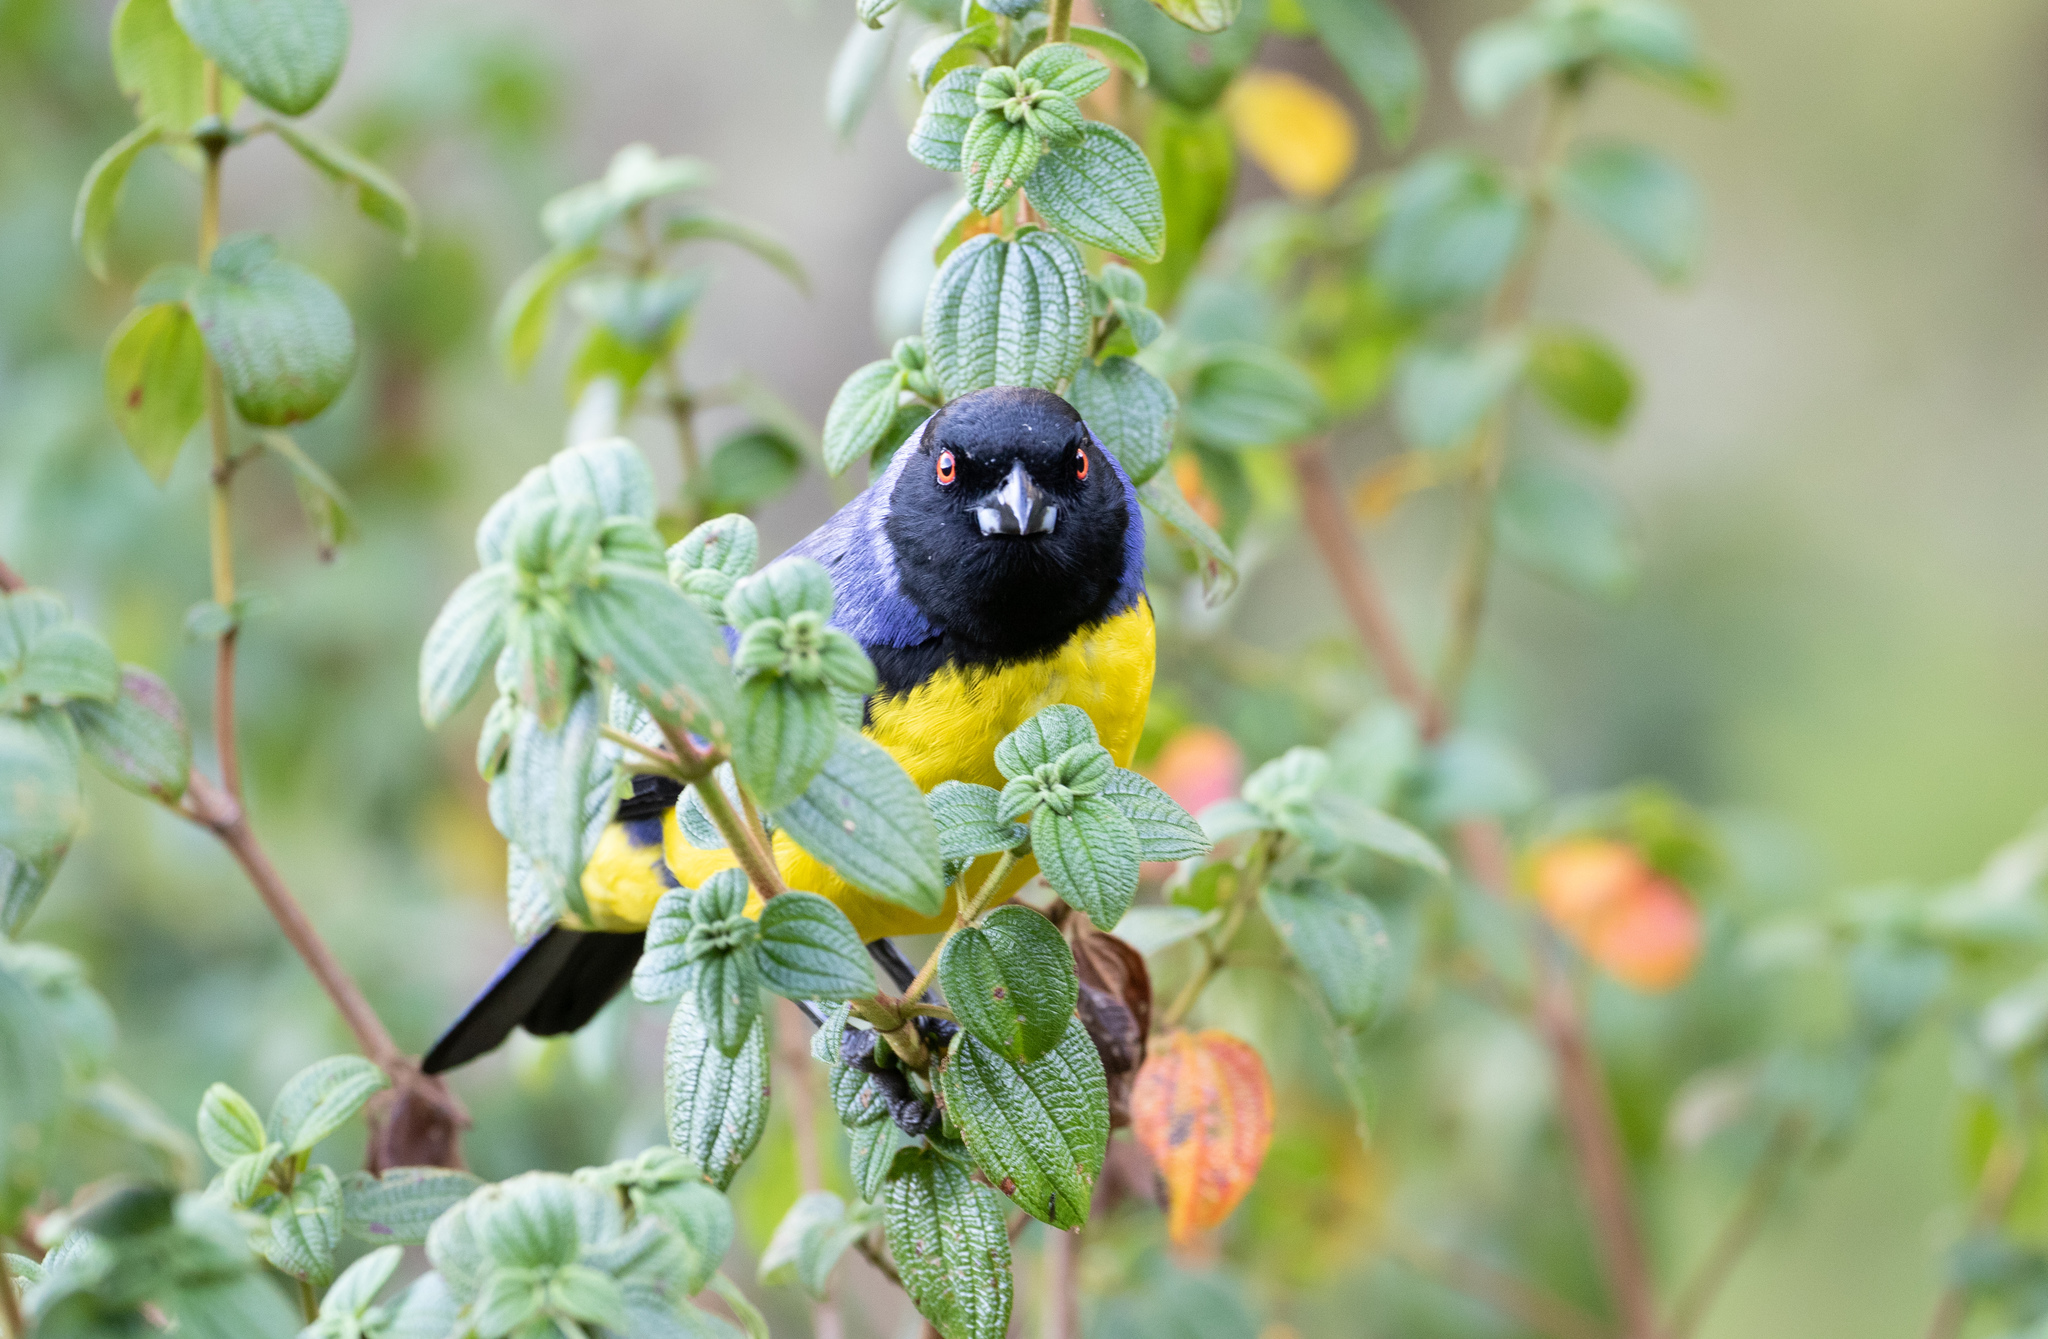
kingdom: Animalia
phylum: Chordata
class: Aves
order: Passeriformes
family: Thraupidae
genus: Buthraupis
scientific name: Buthraupis montana
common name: Hooded mountain tanager
